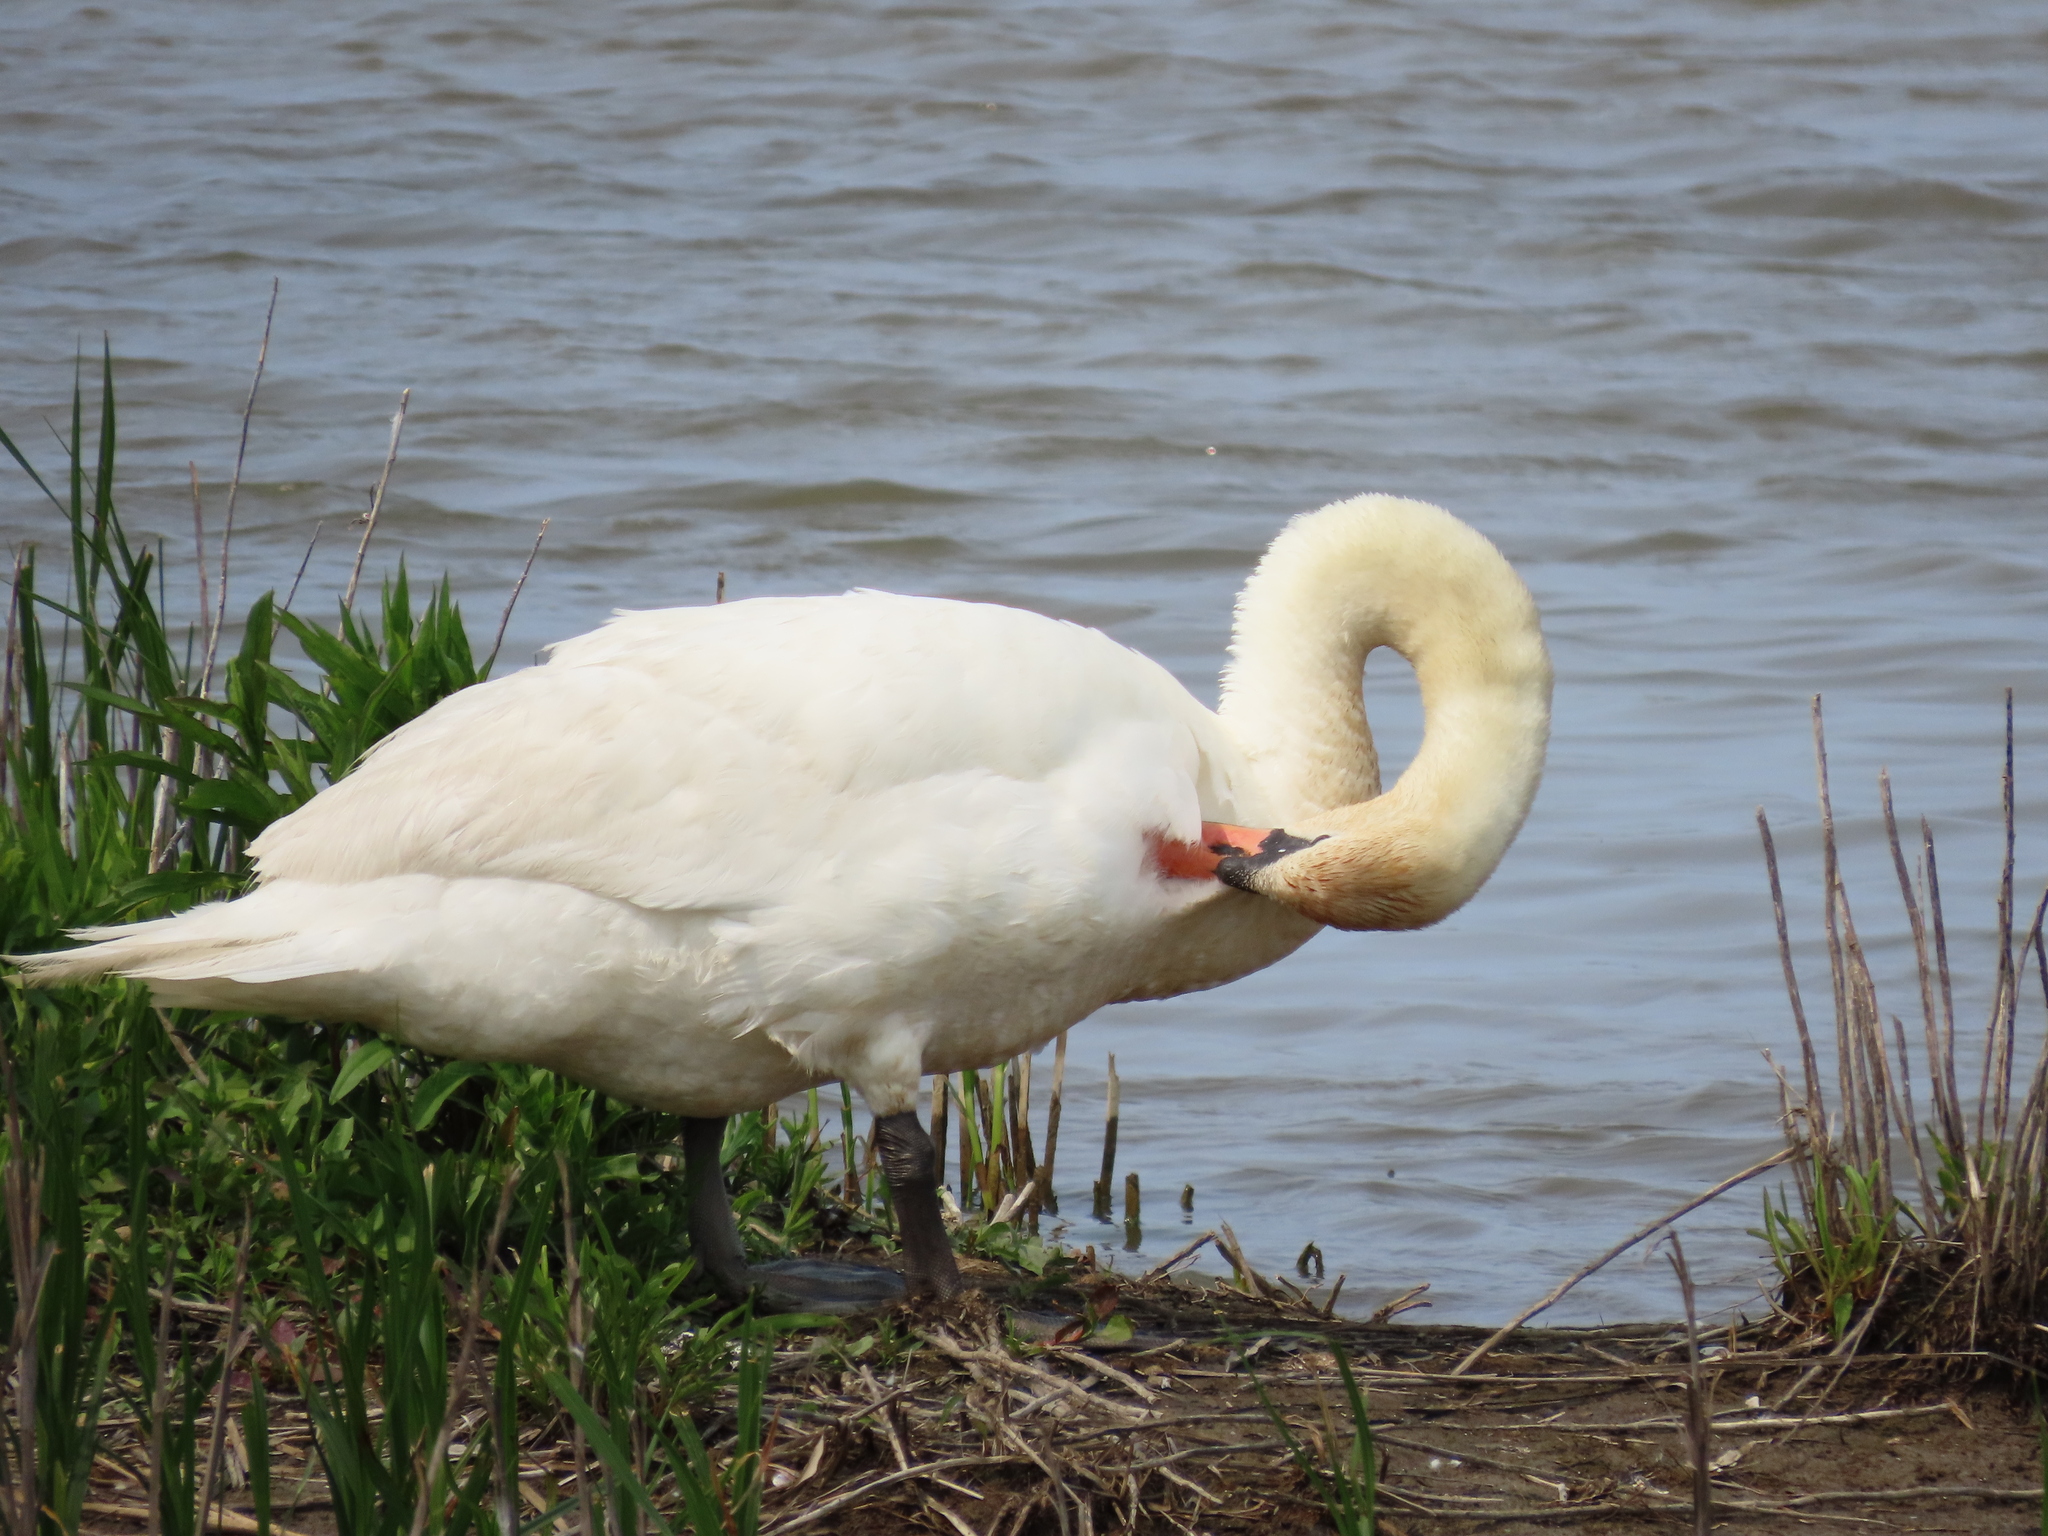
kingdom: Animalia
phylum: Chordata
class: Aves
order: Anseriformes
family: Anatidae
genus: Cygnus
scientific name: Cygnus olor
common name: Mute swan
